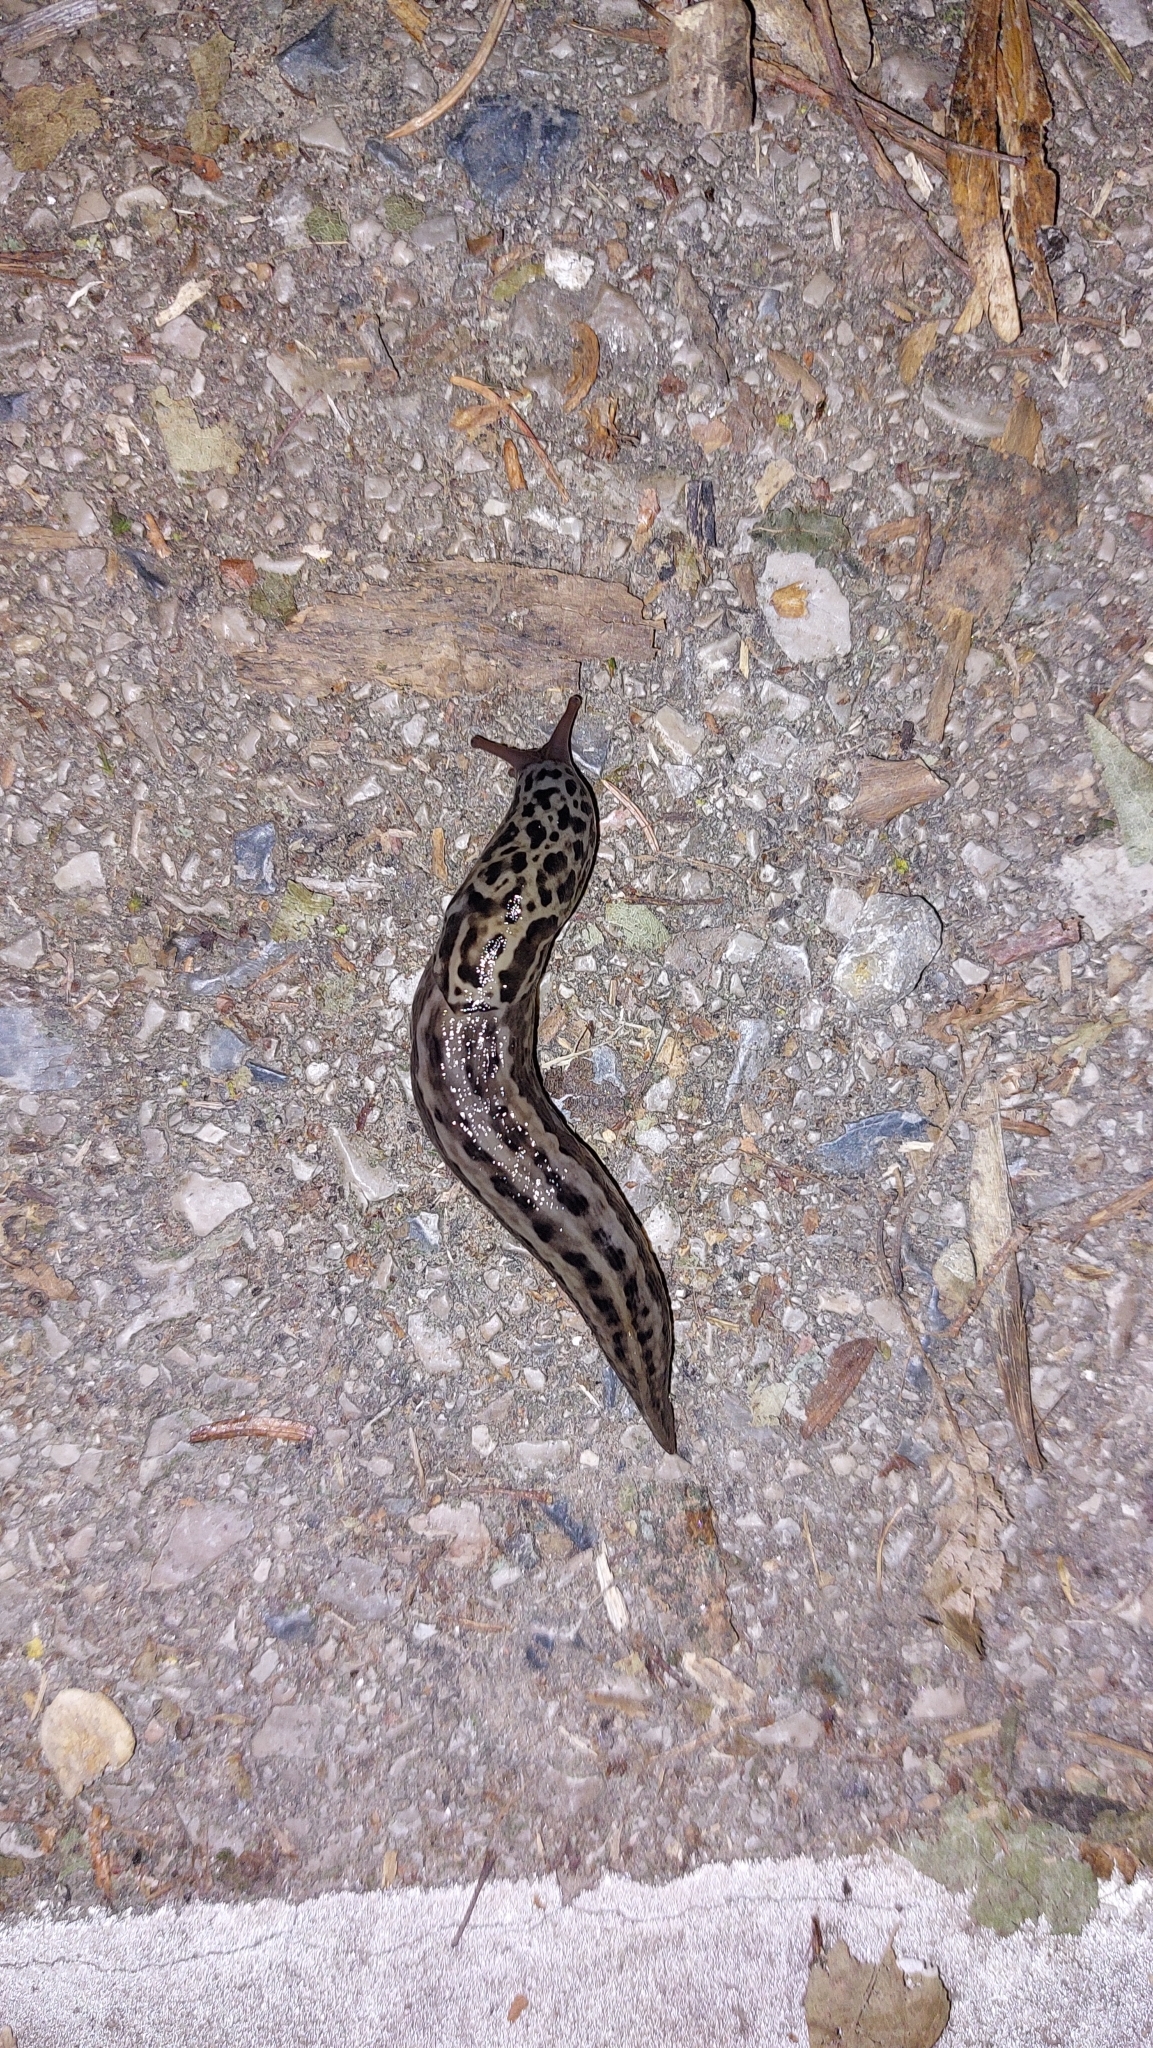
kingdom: Animalia
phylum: Mollusca
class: Gastropoda
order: Stylommatophora
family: Limacidae
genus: Limax
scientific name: Limax maximus
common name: Great grey slug
